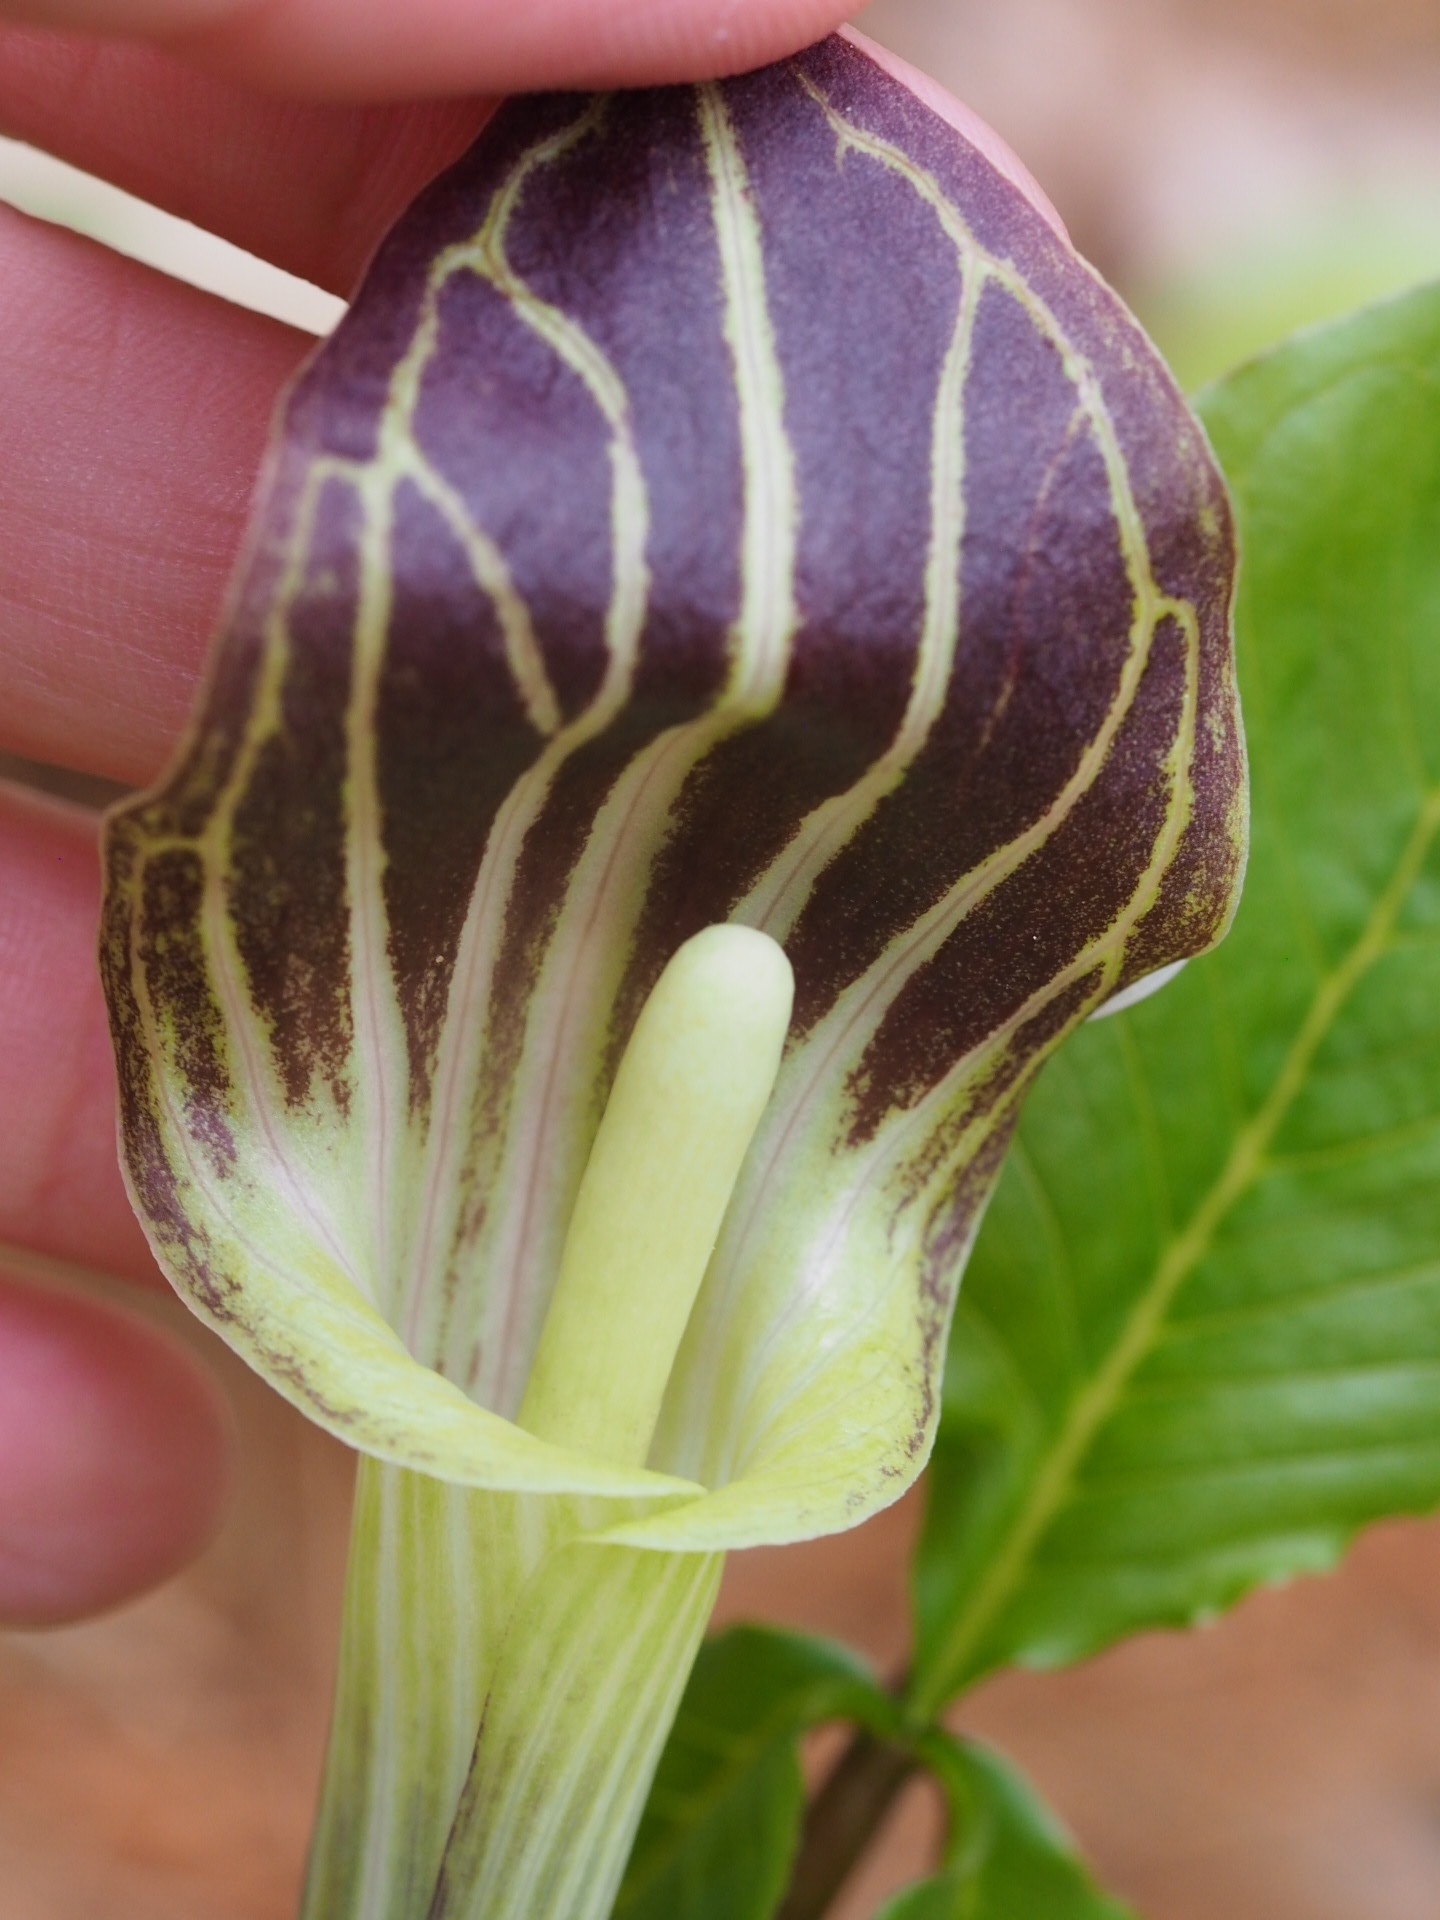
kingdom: Plantae
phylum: Tracheophyta
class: Liliopsida
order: Alismatales
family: Araceae
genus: Arisaema
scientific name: Arisaema triphyllum
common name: Jack-in-the-pulpit
